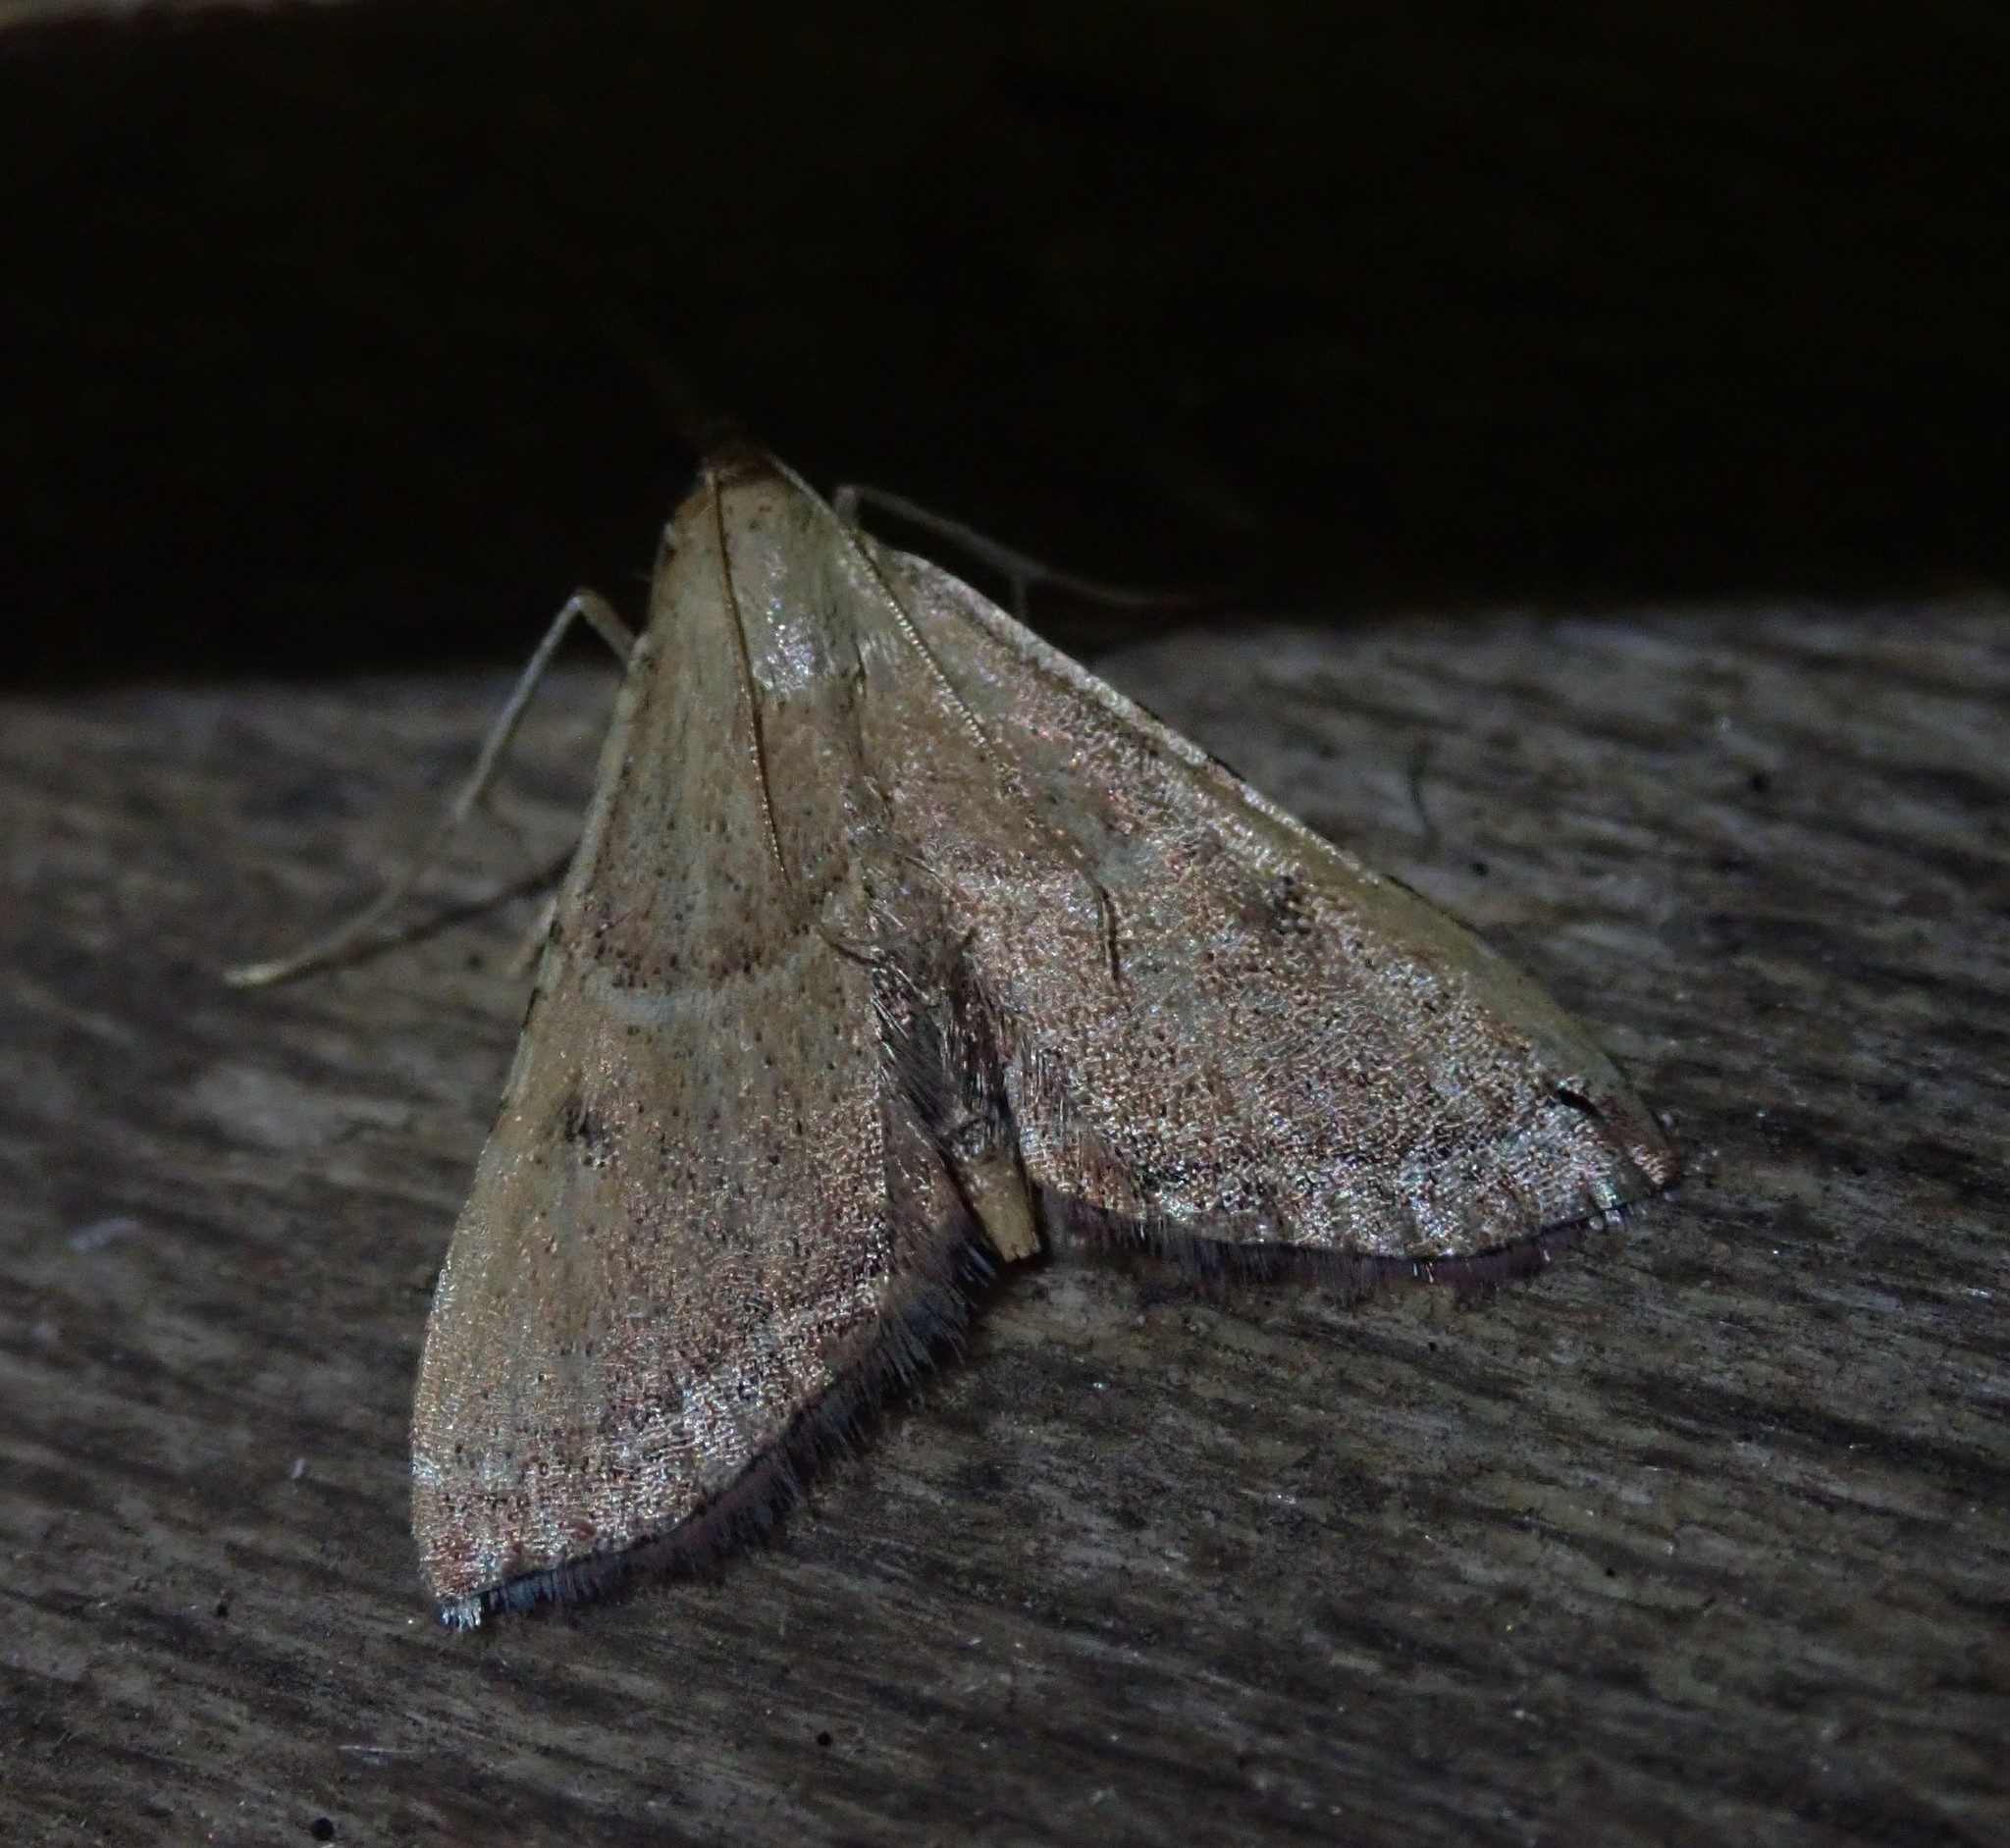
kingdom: Animalia
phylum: Arthropoda
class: Insecta
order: Lepidoptera
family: Pyralidae
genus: Endotricha
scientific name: Endotricha flammealis
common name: Rosy tabby
